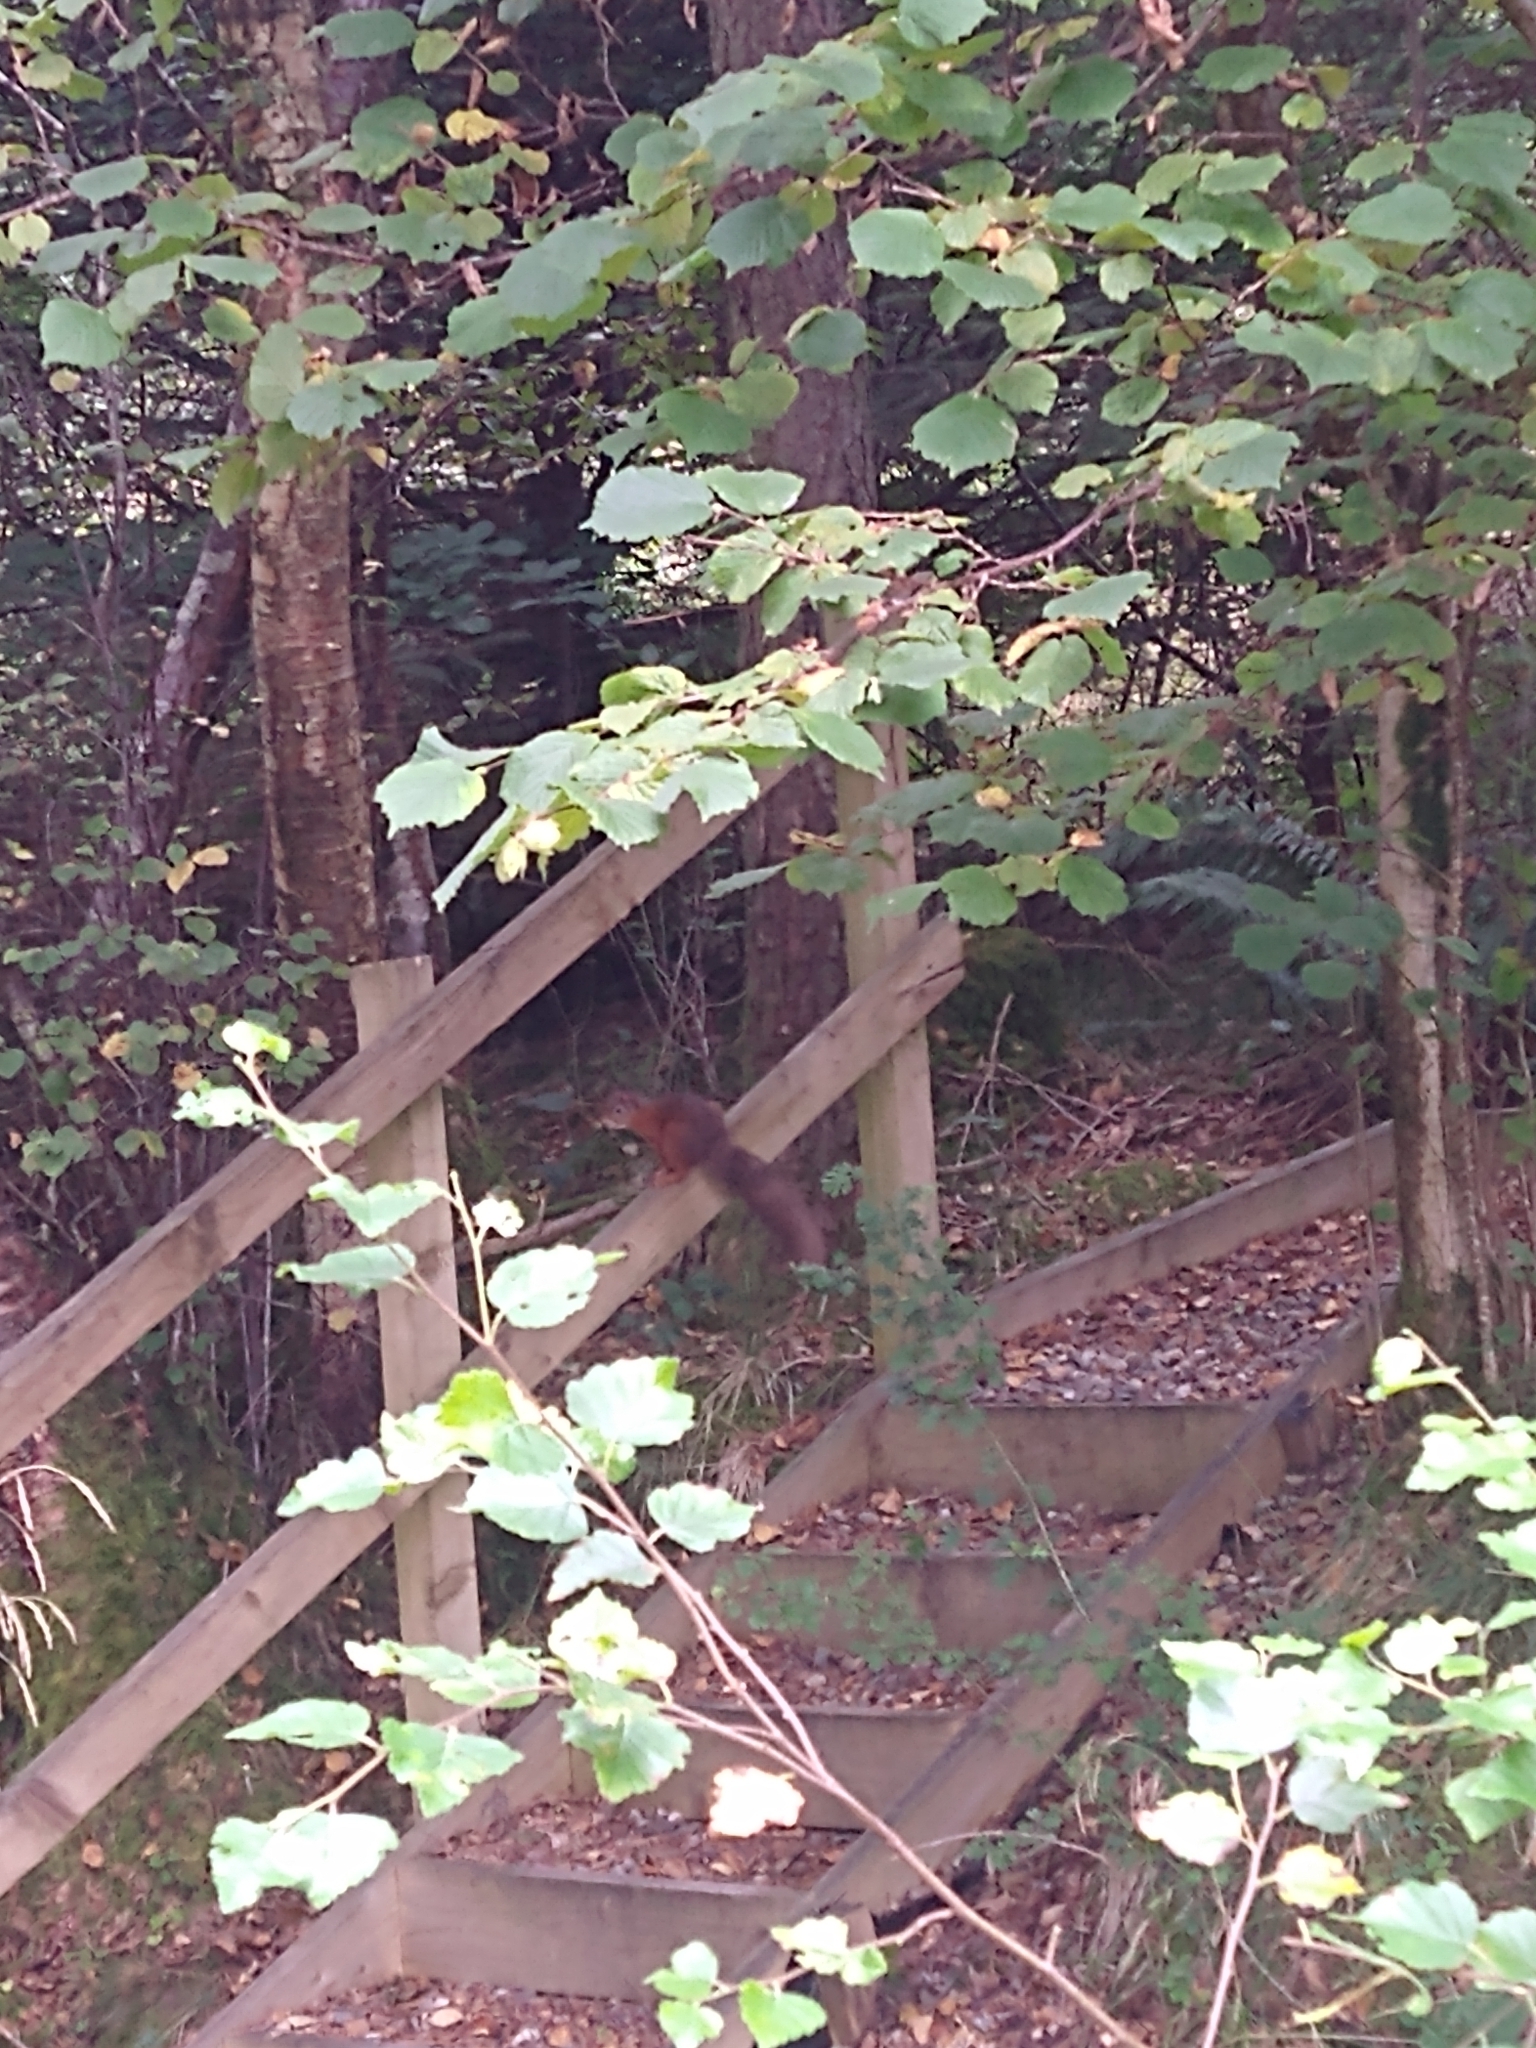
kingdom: Animalia
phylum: Chordata
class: Mammalia
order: Rodentia
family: Sciuridae
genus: Sciurus
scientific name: Sciurus vulgaris
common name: Eurasian red squirrel
